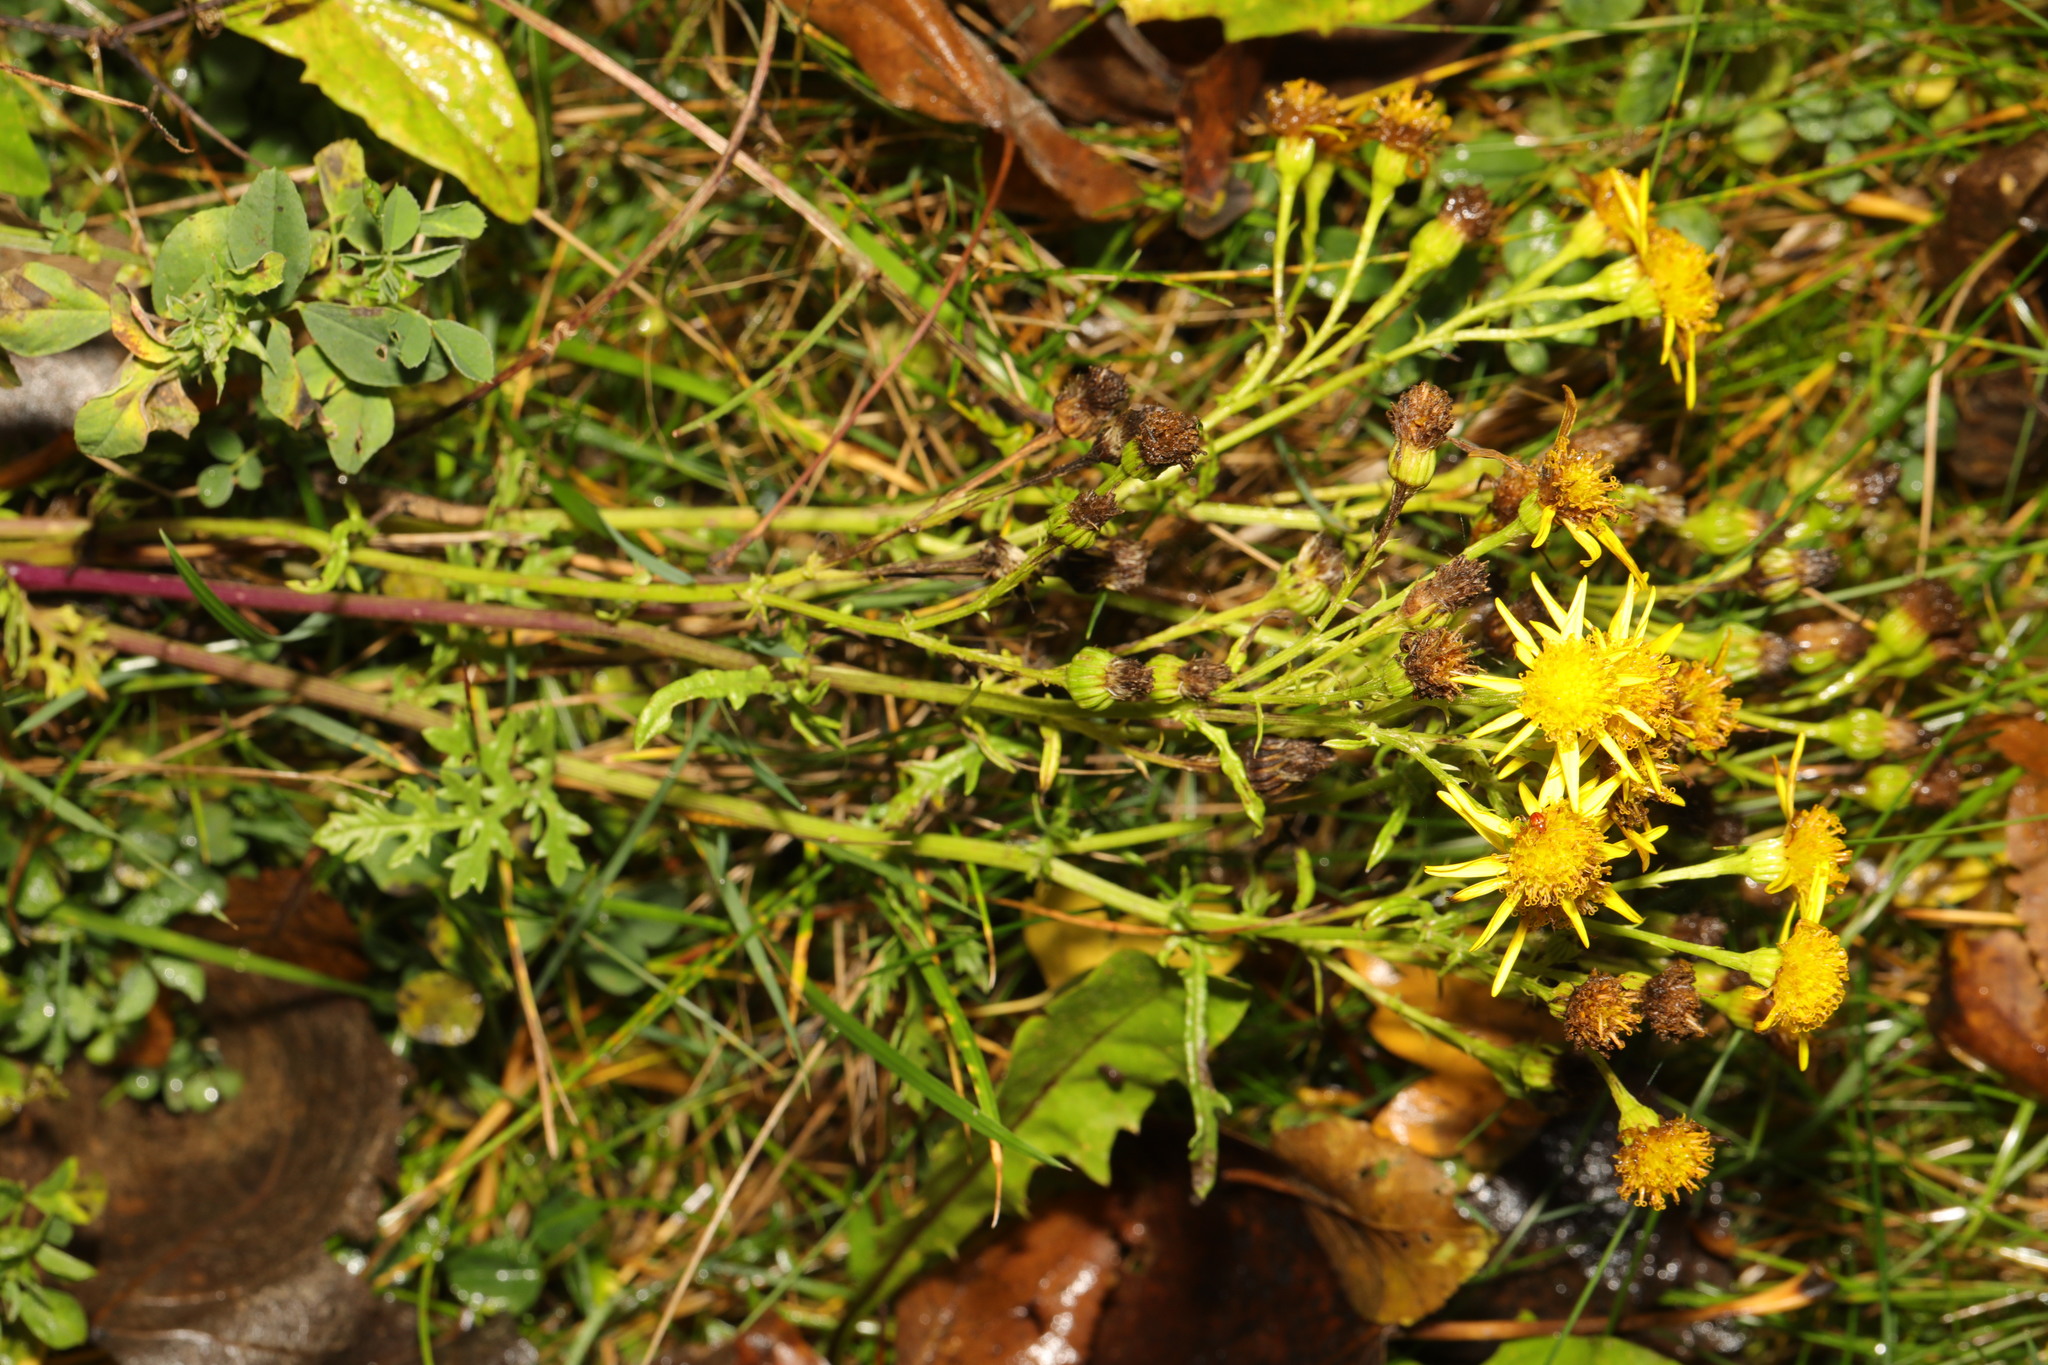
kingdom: Plantae
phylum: Tracheophyta
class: Magnoliopsida
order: Asterales
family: Asteraceae
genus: Jacobaea
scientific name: Jacobaea vulgaris
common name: Stinking willie
